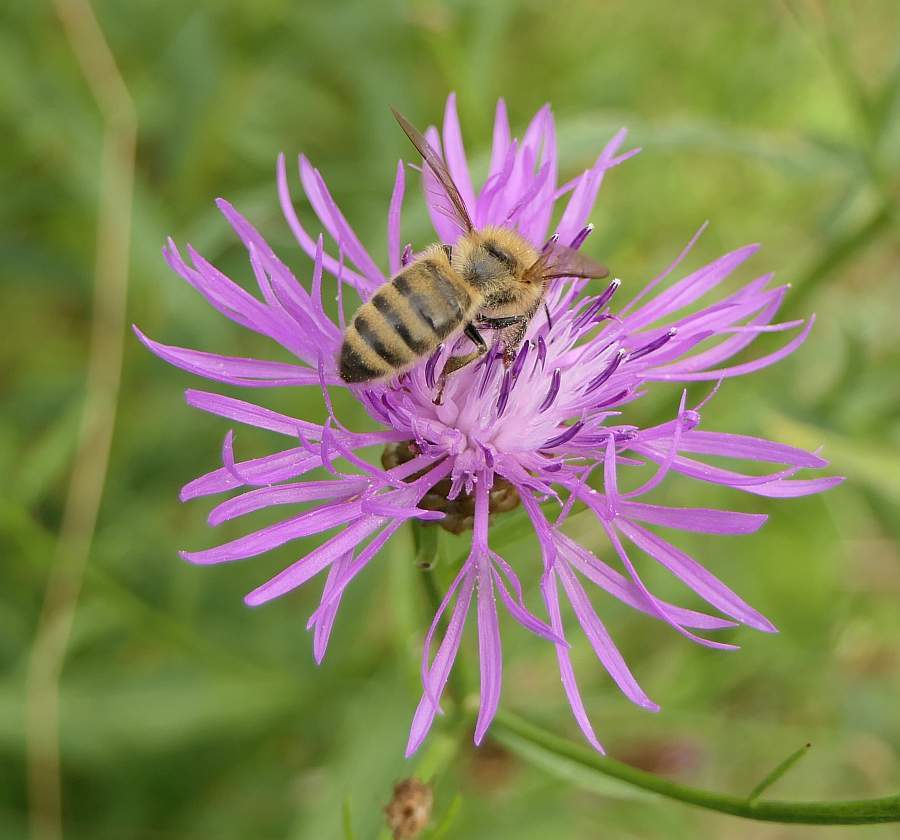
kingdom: Animalia
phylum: Arthropoda
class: Insecta
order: Hymenoptera
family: Apidae
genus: Apis
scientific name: Apis mellifera
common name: Honey bee
